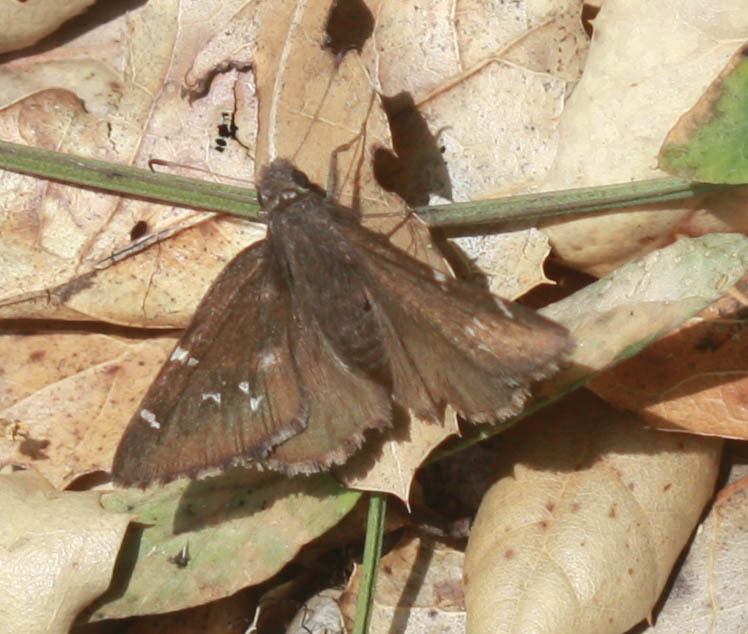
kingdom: Animalia
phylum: Arthropoda
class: Insecta
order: Lepidoptera
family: Hesperiidae
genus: Thorybes
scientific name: Thorybes pylades
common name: Northern cloudywing
